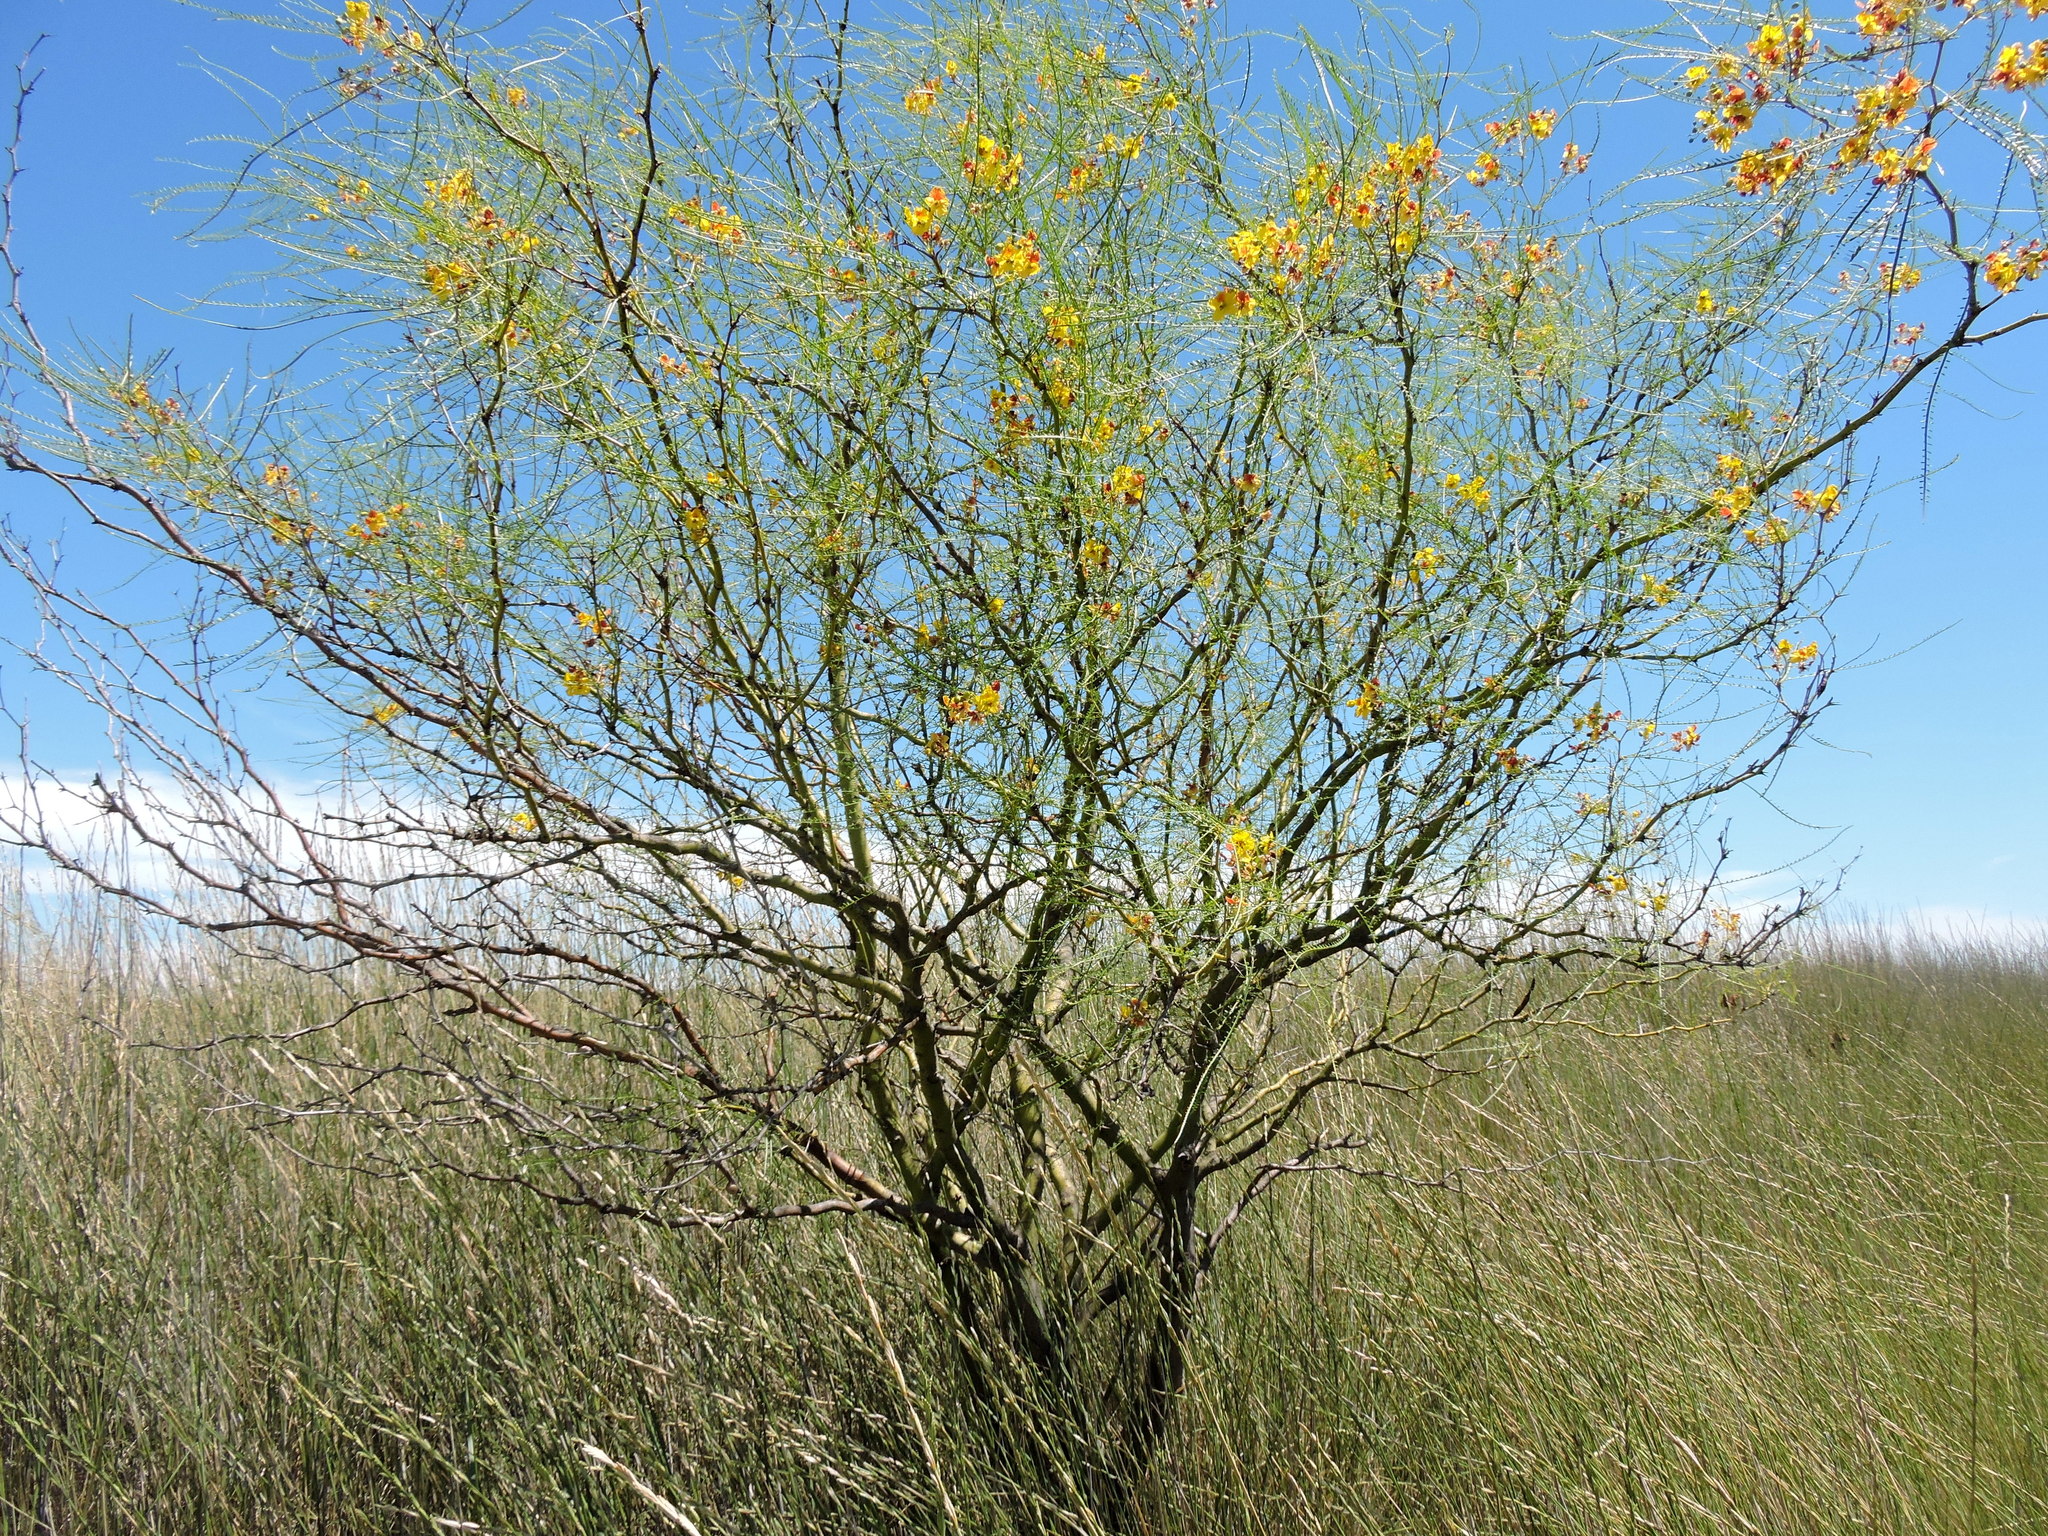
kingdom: Plantae
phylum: Tracheophyta
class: Magnoliopsida
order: Fabales
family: Fabaceae
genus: Parkinsonia
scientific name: Parkinsonia aculeata
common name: Jerusalem thorn
